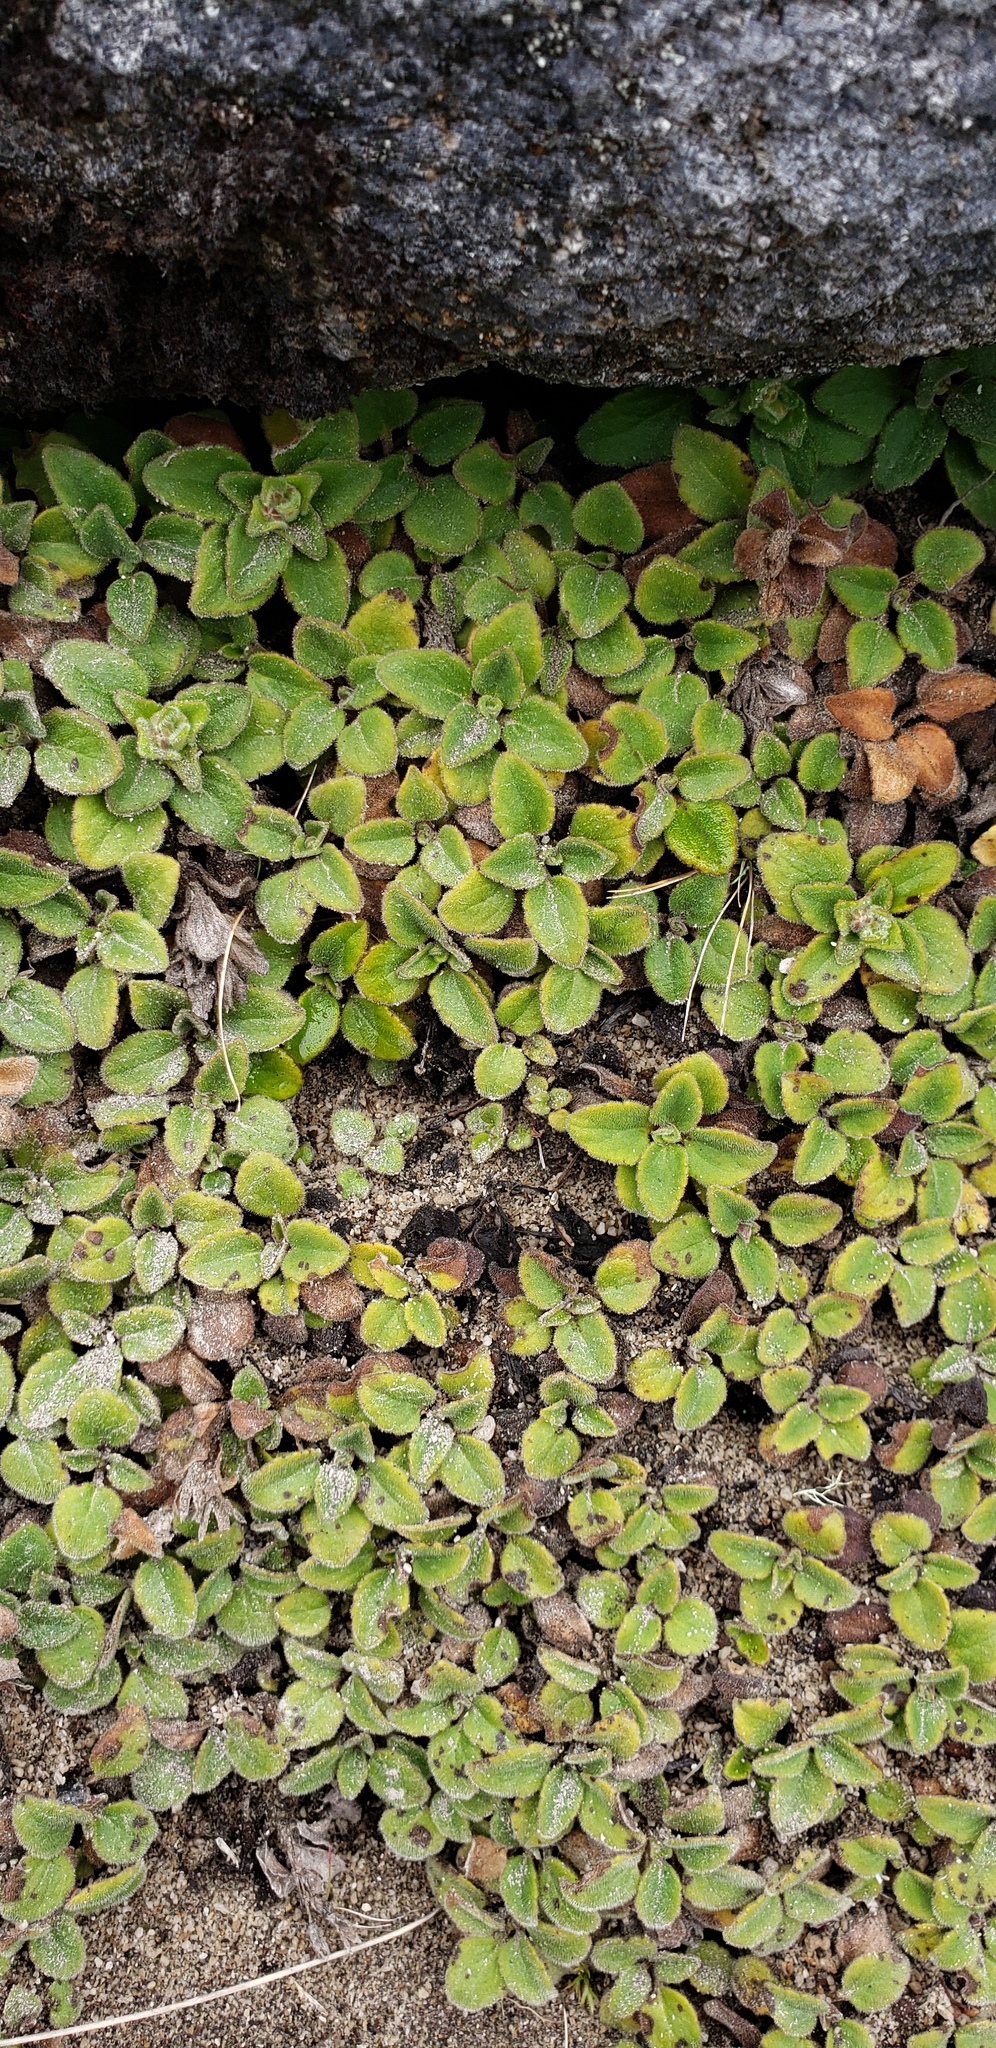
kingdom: Plantae
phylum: Tracheophyta
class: Magnoliopsida
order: Lamiales
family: Plantaginaceae
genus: Ourisia
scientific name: Ourisia fragrans
